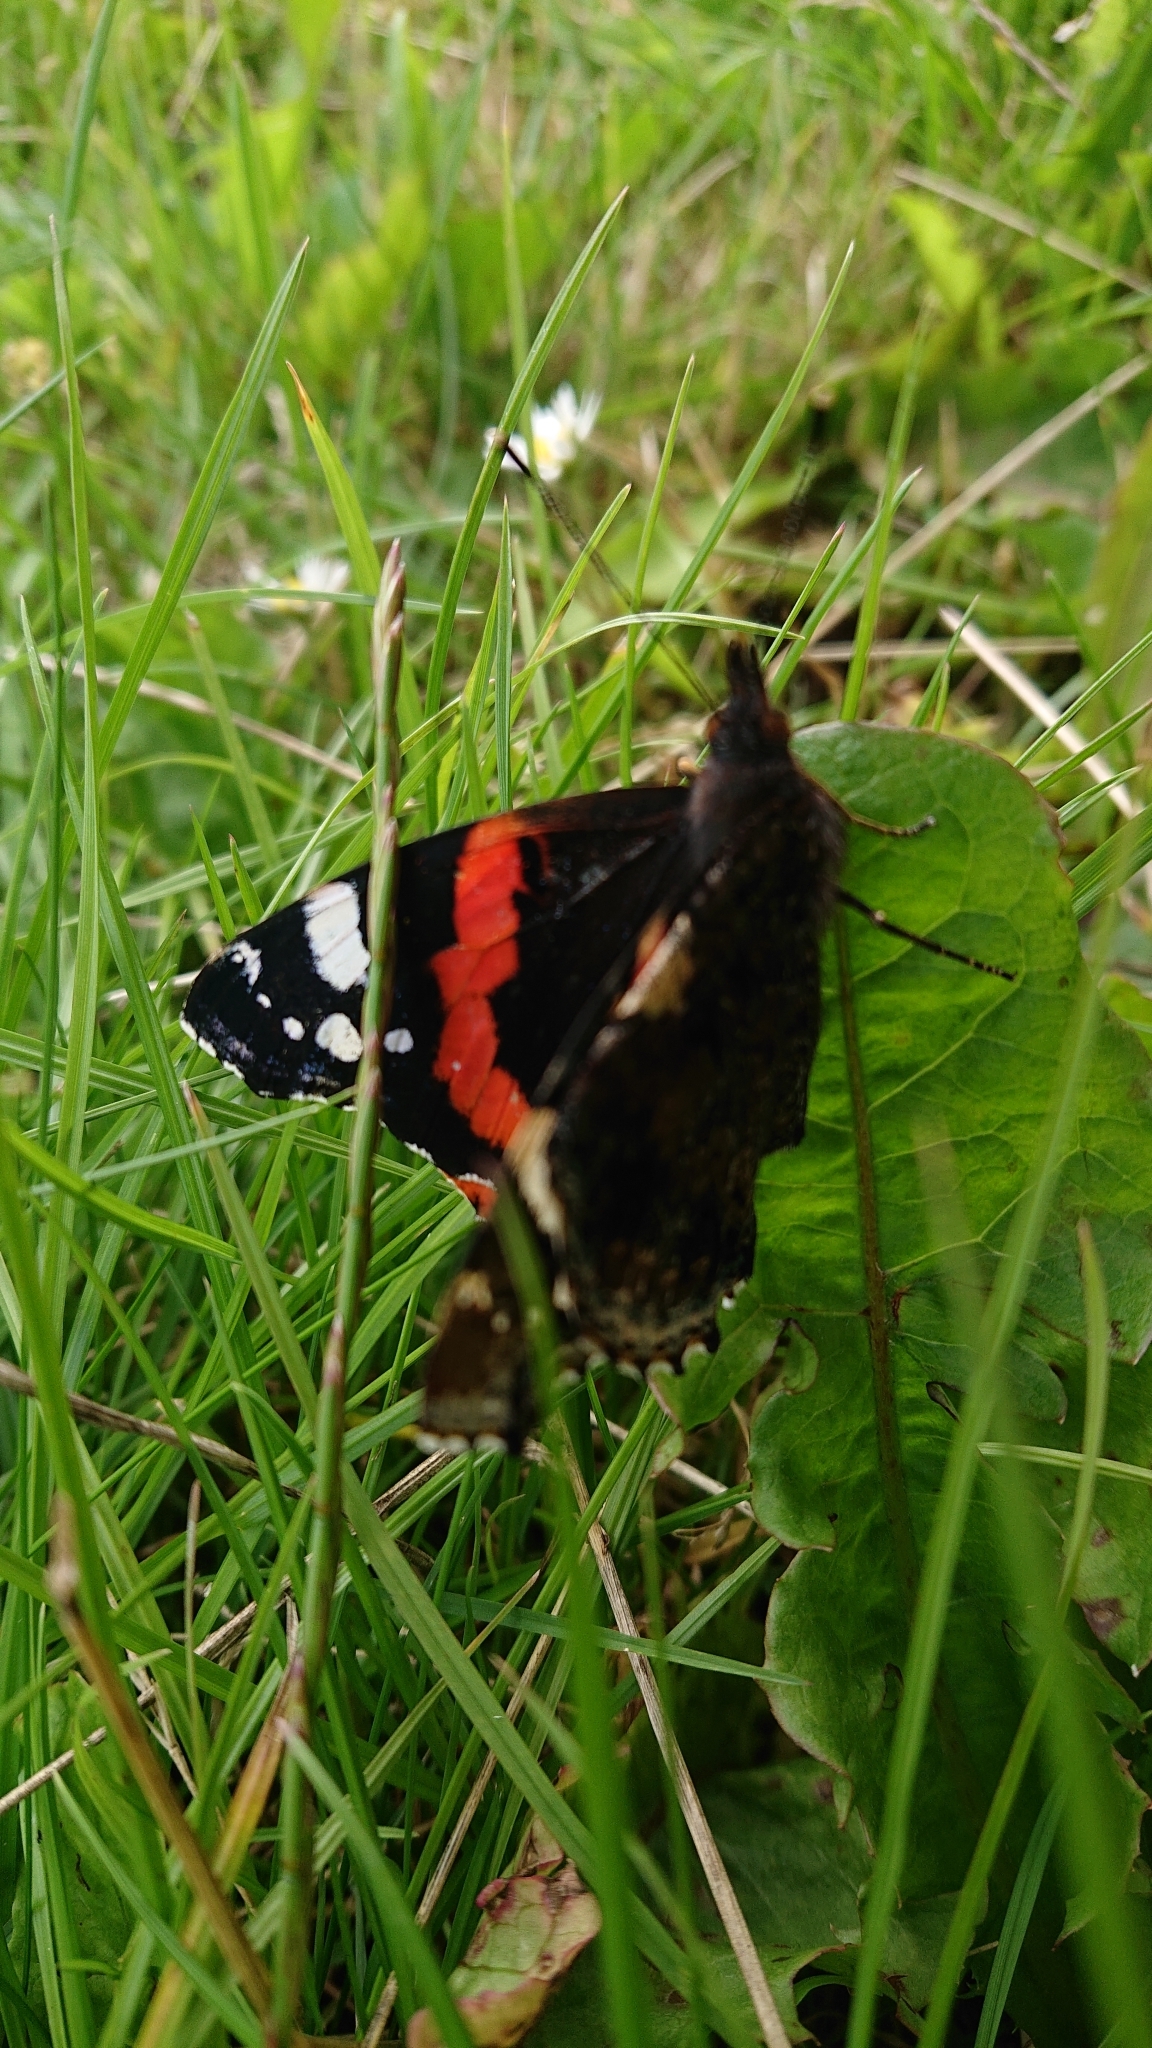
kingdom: Animalia
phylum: Arthropoda
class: Insecta
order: Lepidoptera
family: Nymphalidae
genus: Vanessa
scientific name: Vanessa atalanta
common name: Red admiral
